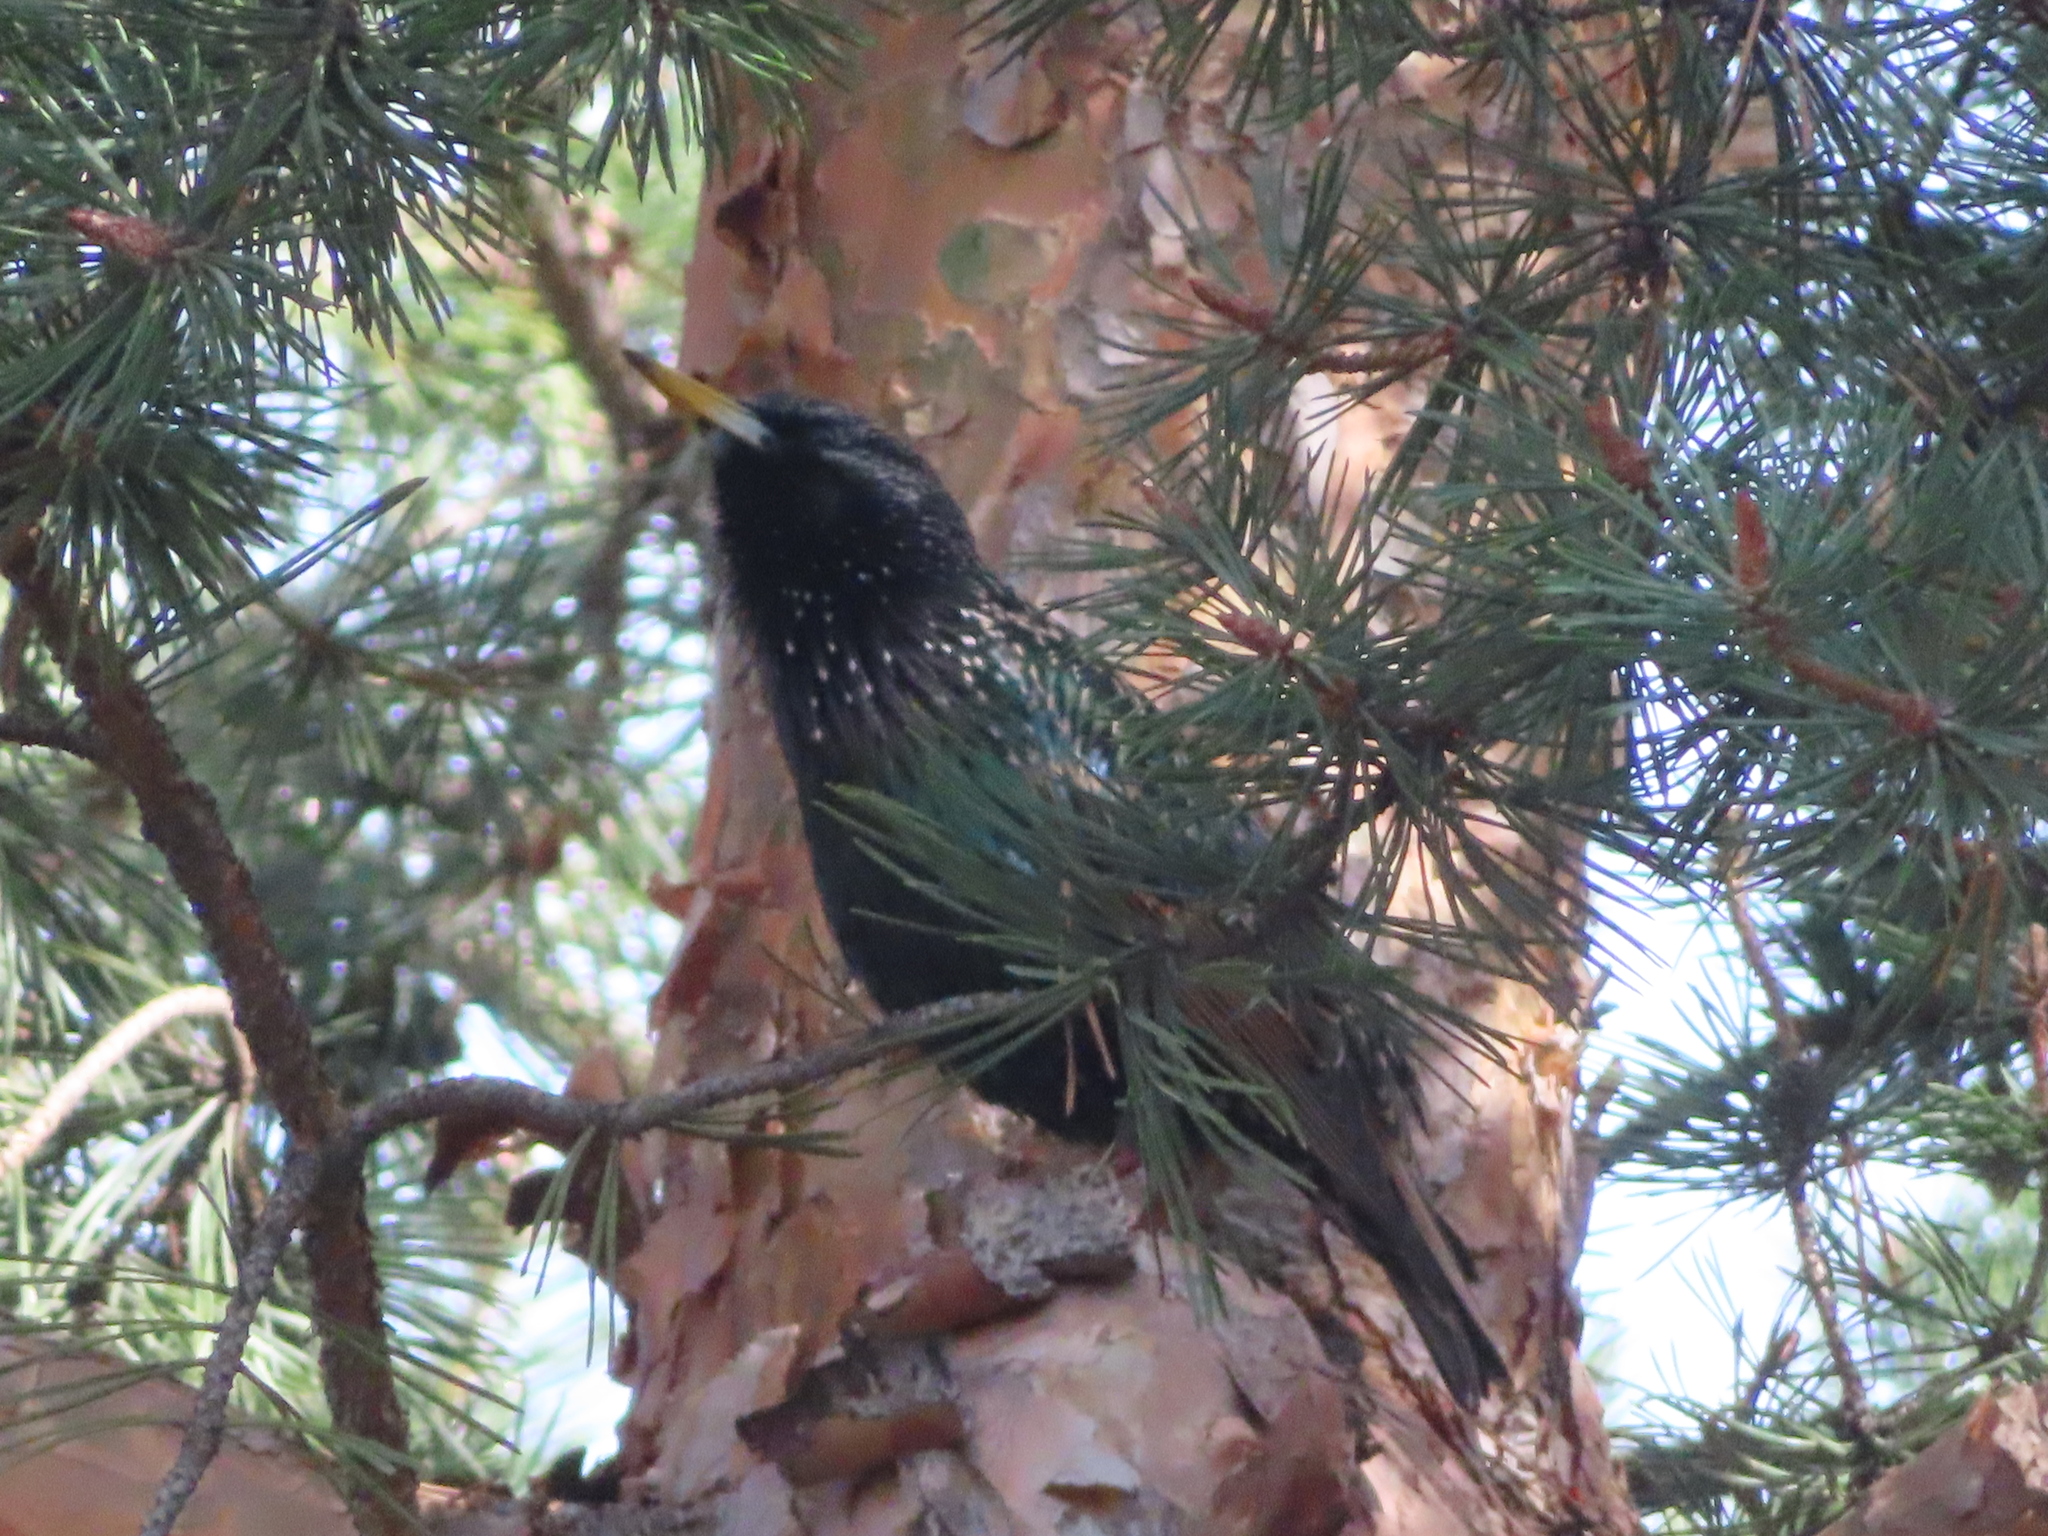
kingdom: Animalia
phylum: Chordata
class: Aves
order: Passeriformes
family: Sturnidae
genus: Sturnus
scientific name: Sturnus vulgaris
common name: Common starling
